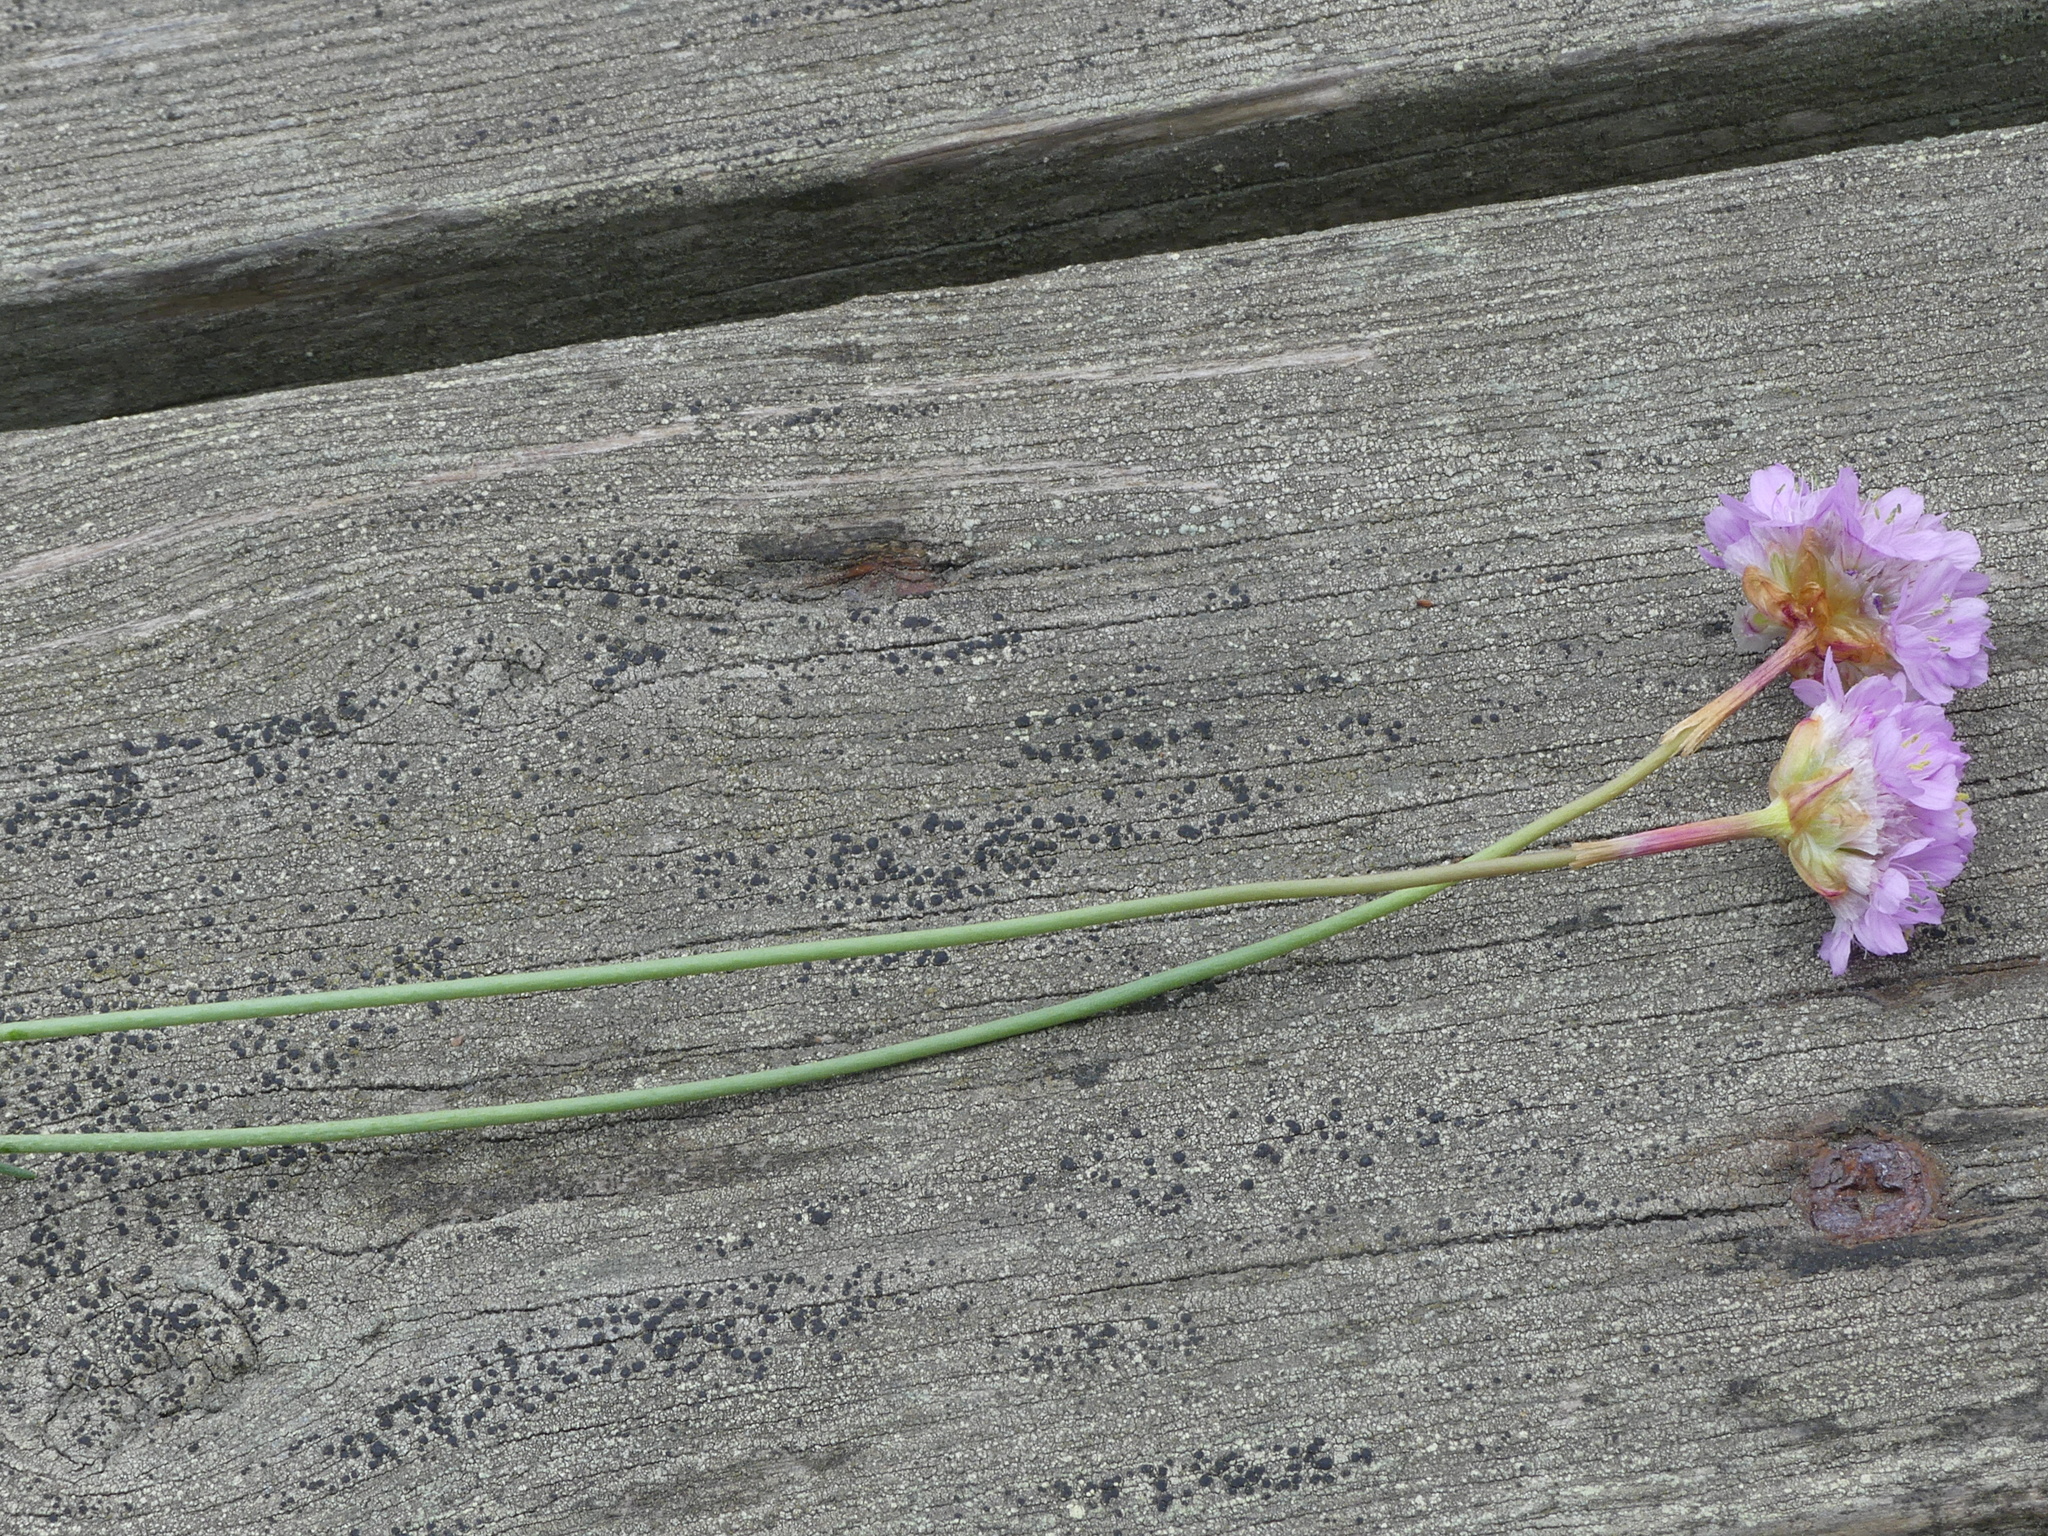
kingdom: Plantae
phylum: Tracheophyta
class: Magnoliopsida
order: Caryophyllales
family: Plumbaginaceae
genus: Armeria
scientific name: Armeria maritima
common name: Thrift
